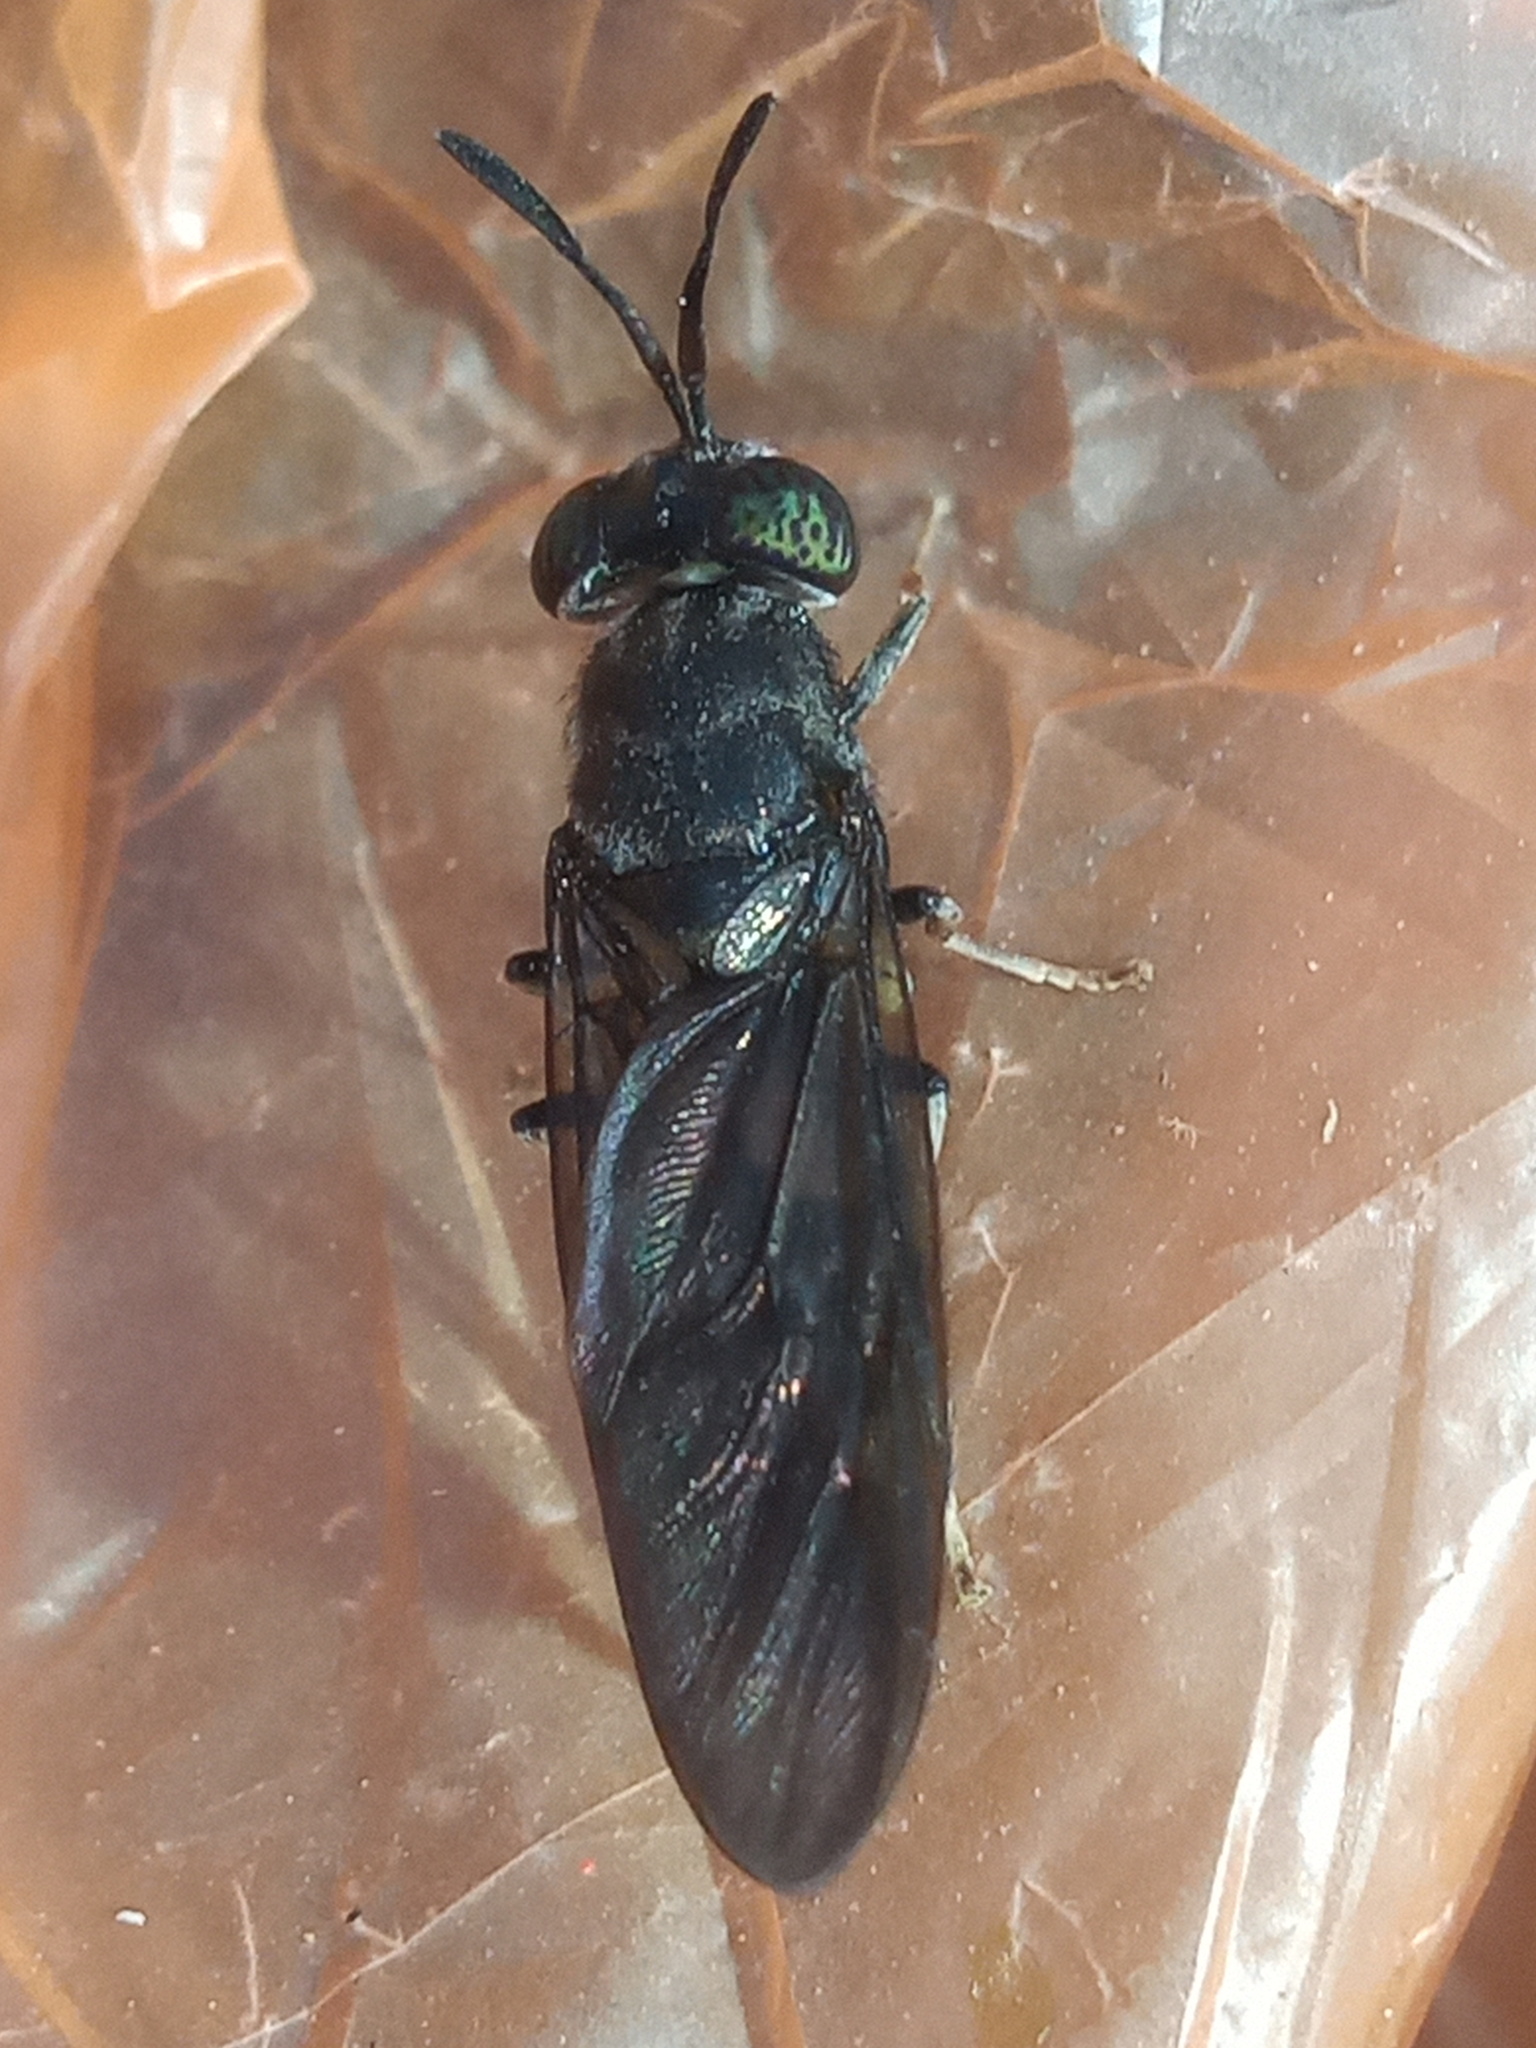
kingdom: Animalia
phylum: Arthropoda
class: Insecta
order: Diptera
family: Stratiomyidae
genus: Hermetia
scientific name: Hermetia illucens
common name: Black soldier fly
